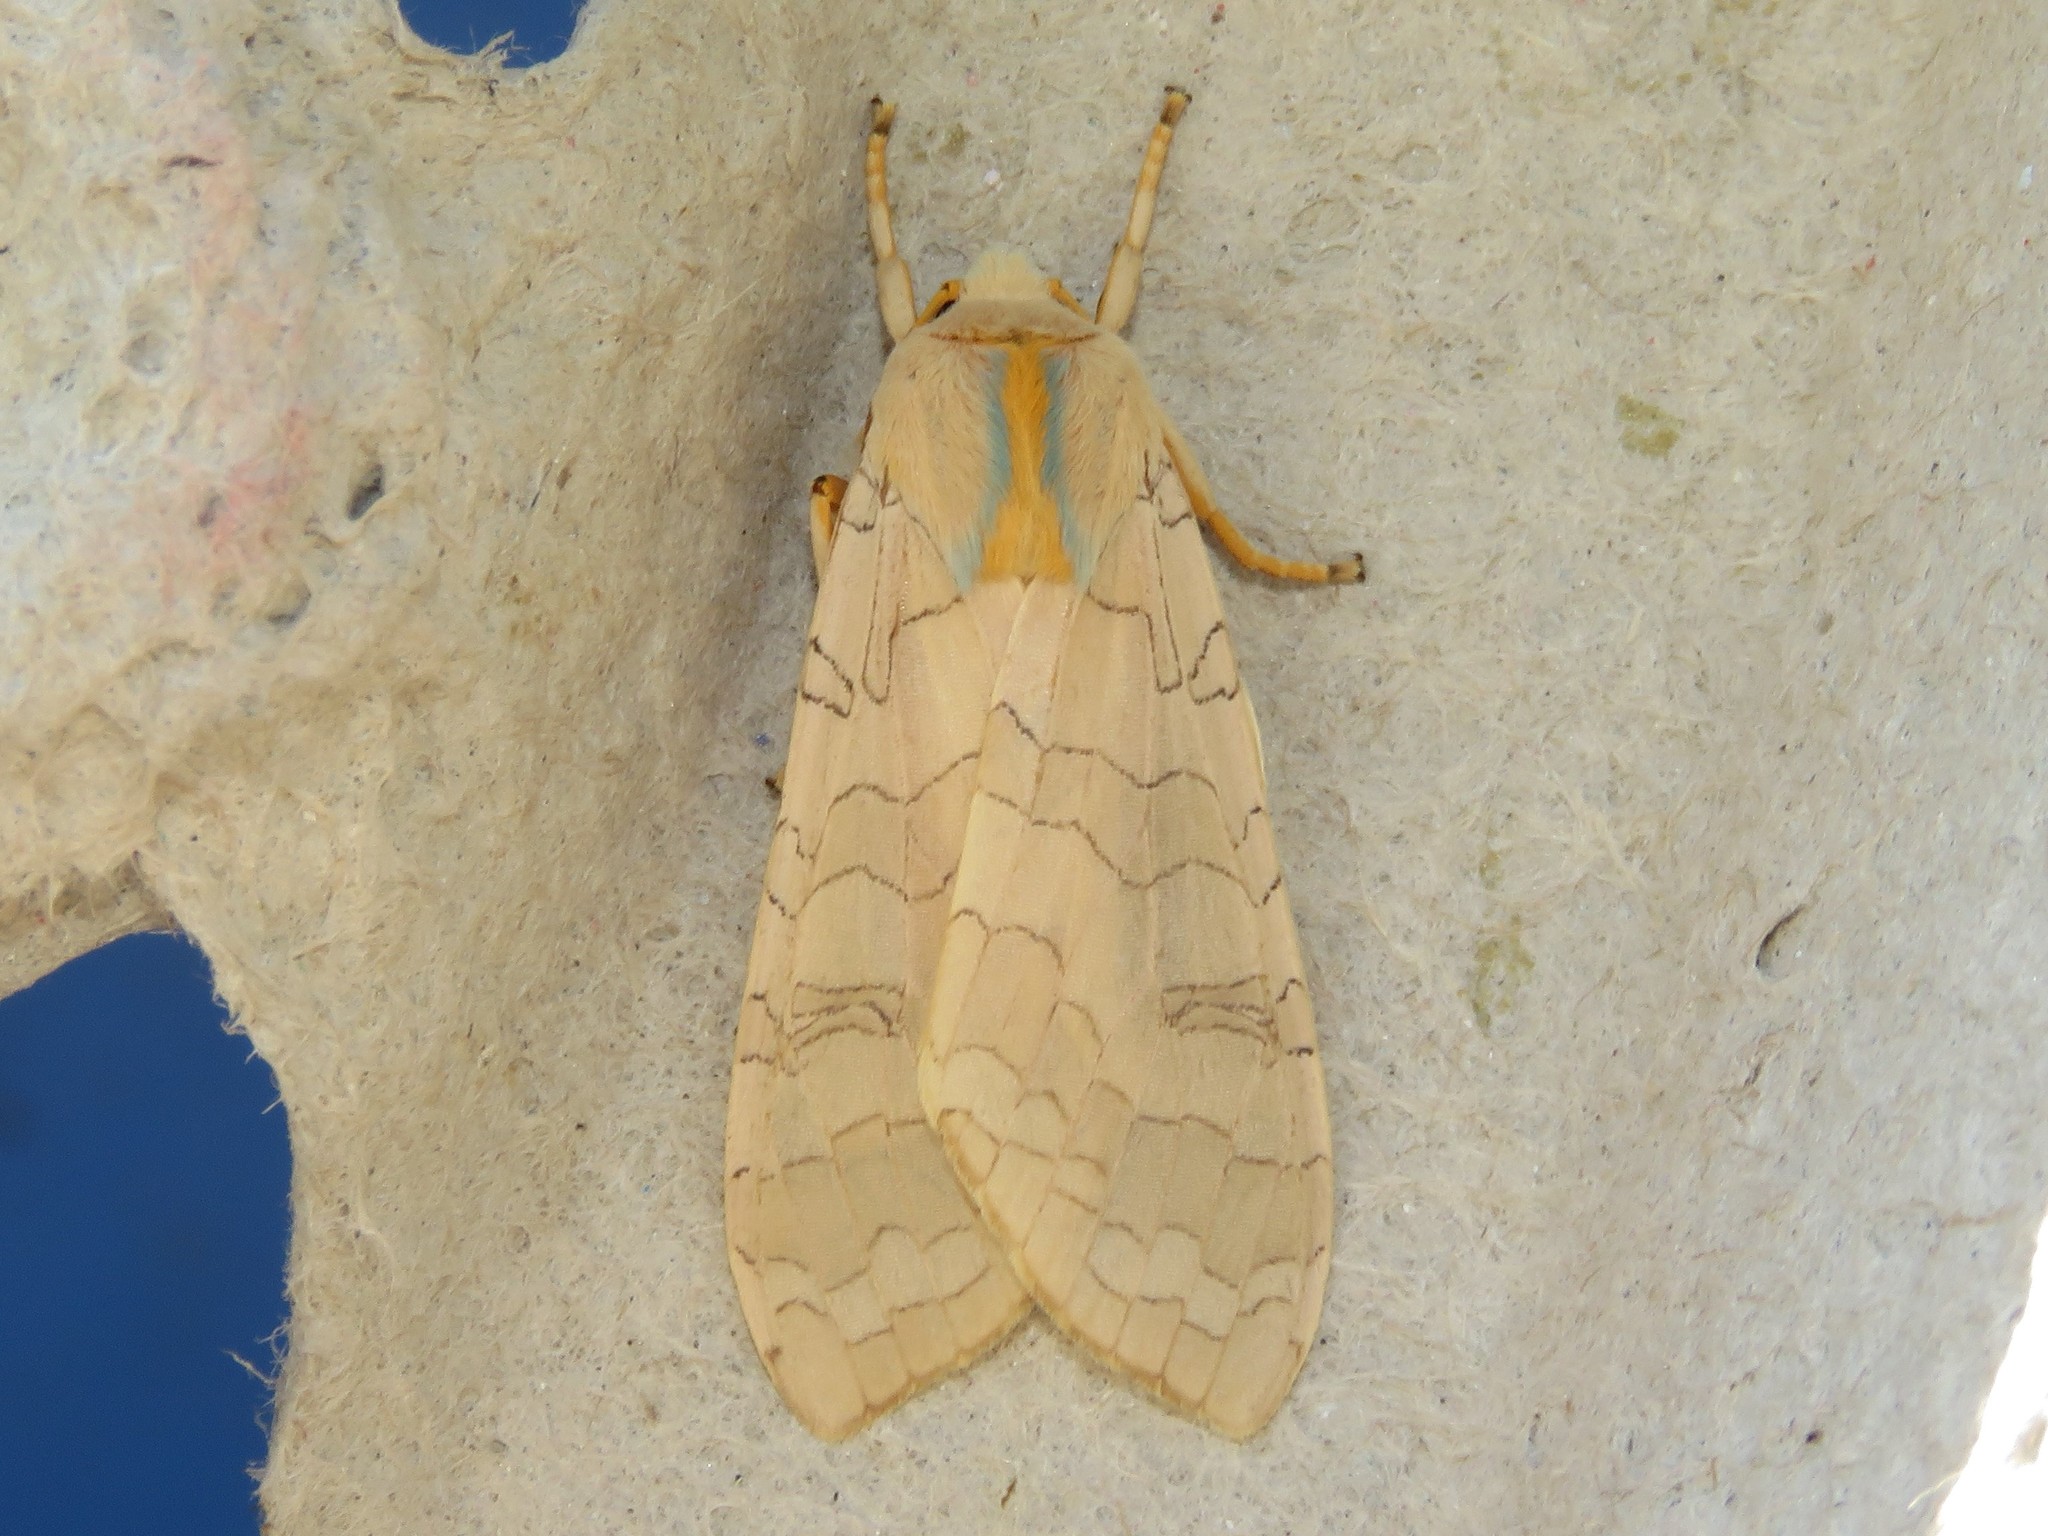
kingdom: Animalia
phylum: Arthropoda
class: Insecta
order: Lepidoptera
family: Erebidae
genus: Halysidota
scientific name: Halysidota tessellaris
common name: Banded tussock moth
